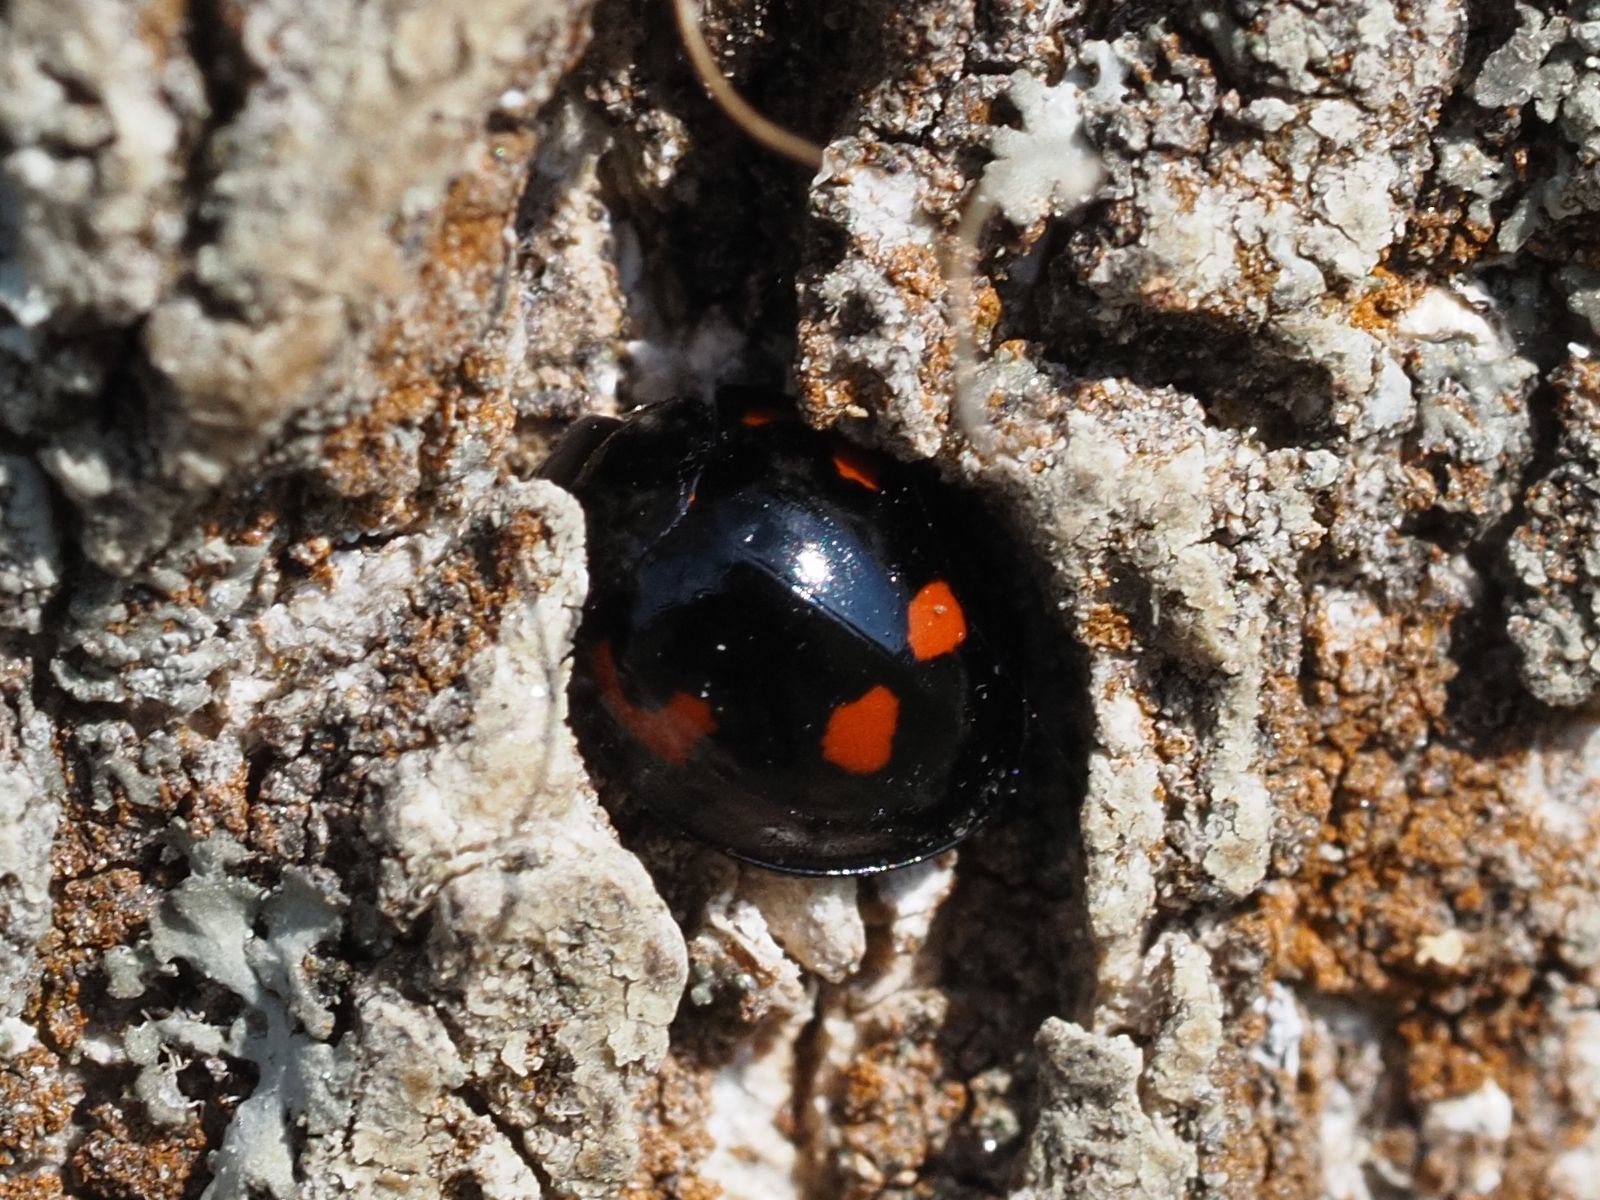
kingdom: Animalia
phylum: Arthropoda
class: Insecta
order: Coleoptera
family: Coccinellidae
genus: Brumus
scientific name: Brumus quadripustulatus
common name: Ladybird beetle
